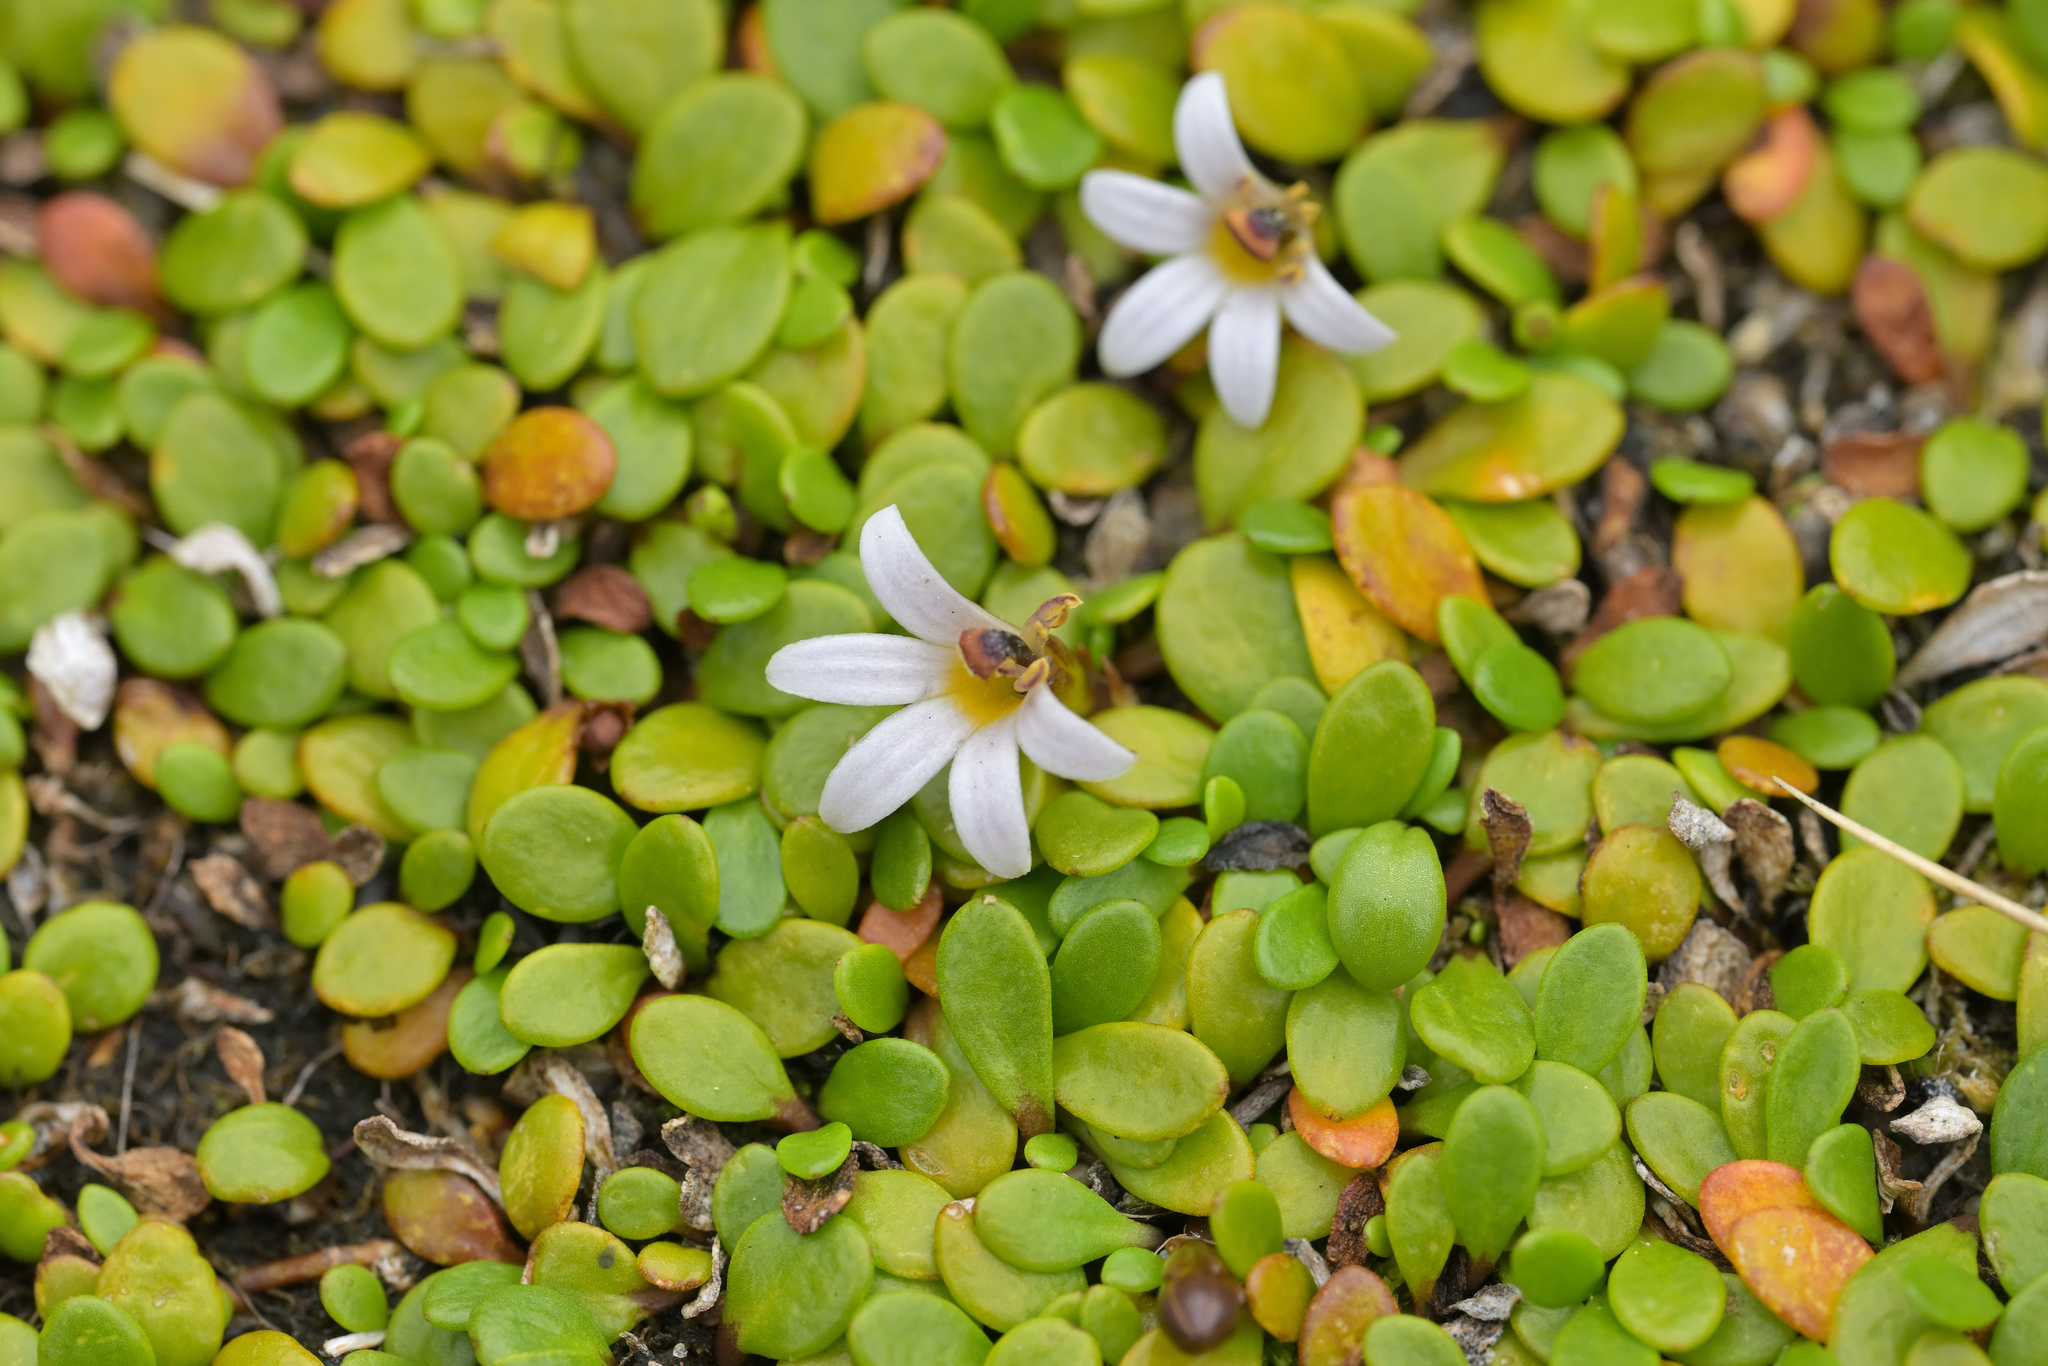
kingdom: Plantae
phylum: Tracheophyta
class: Magnoliopsida
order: Asterales
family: Goodeniaceae
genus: Goodenia
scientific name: Goodenia radicans
